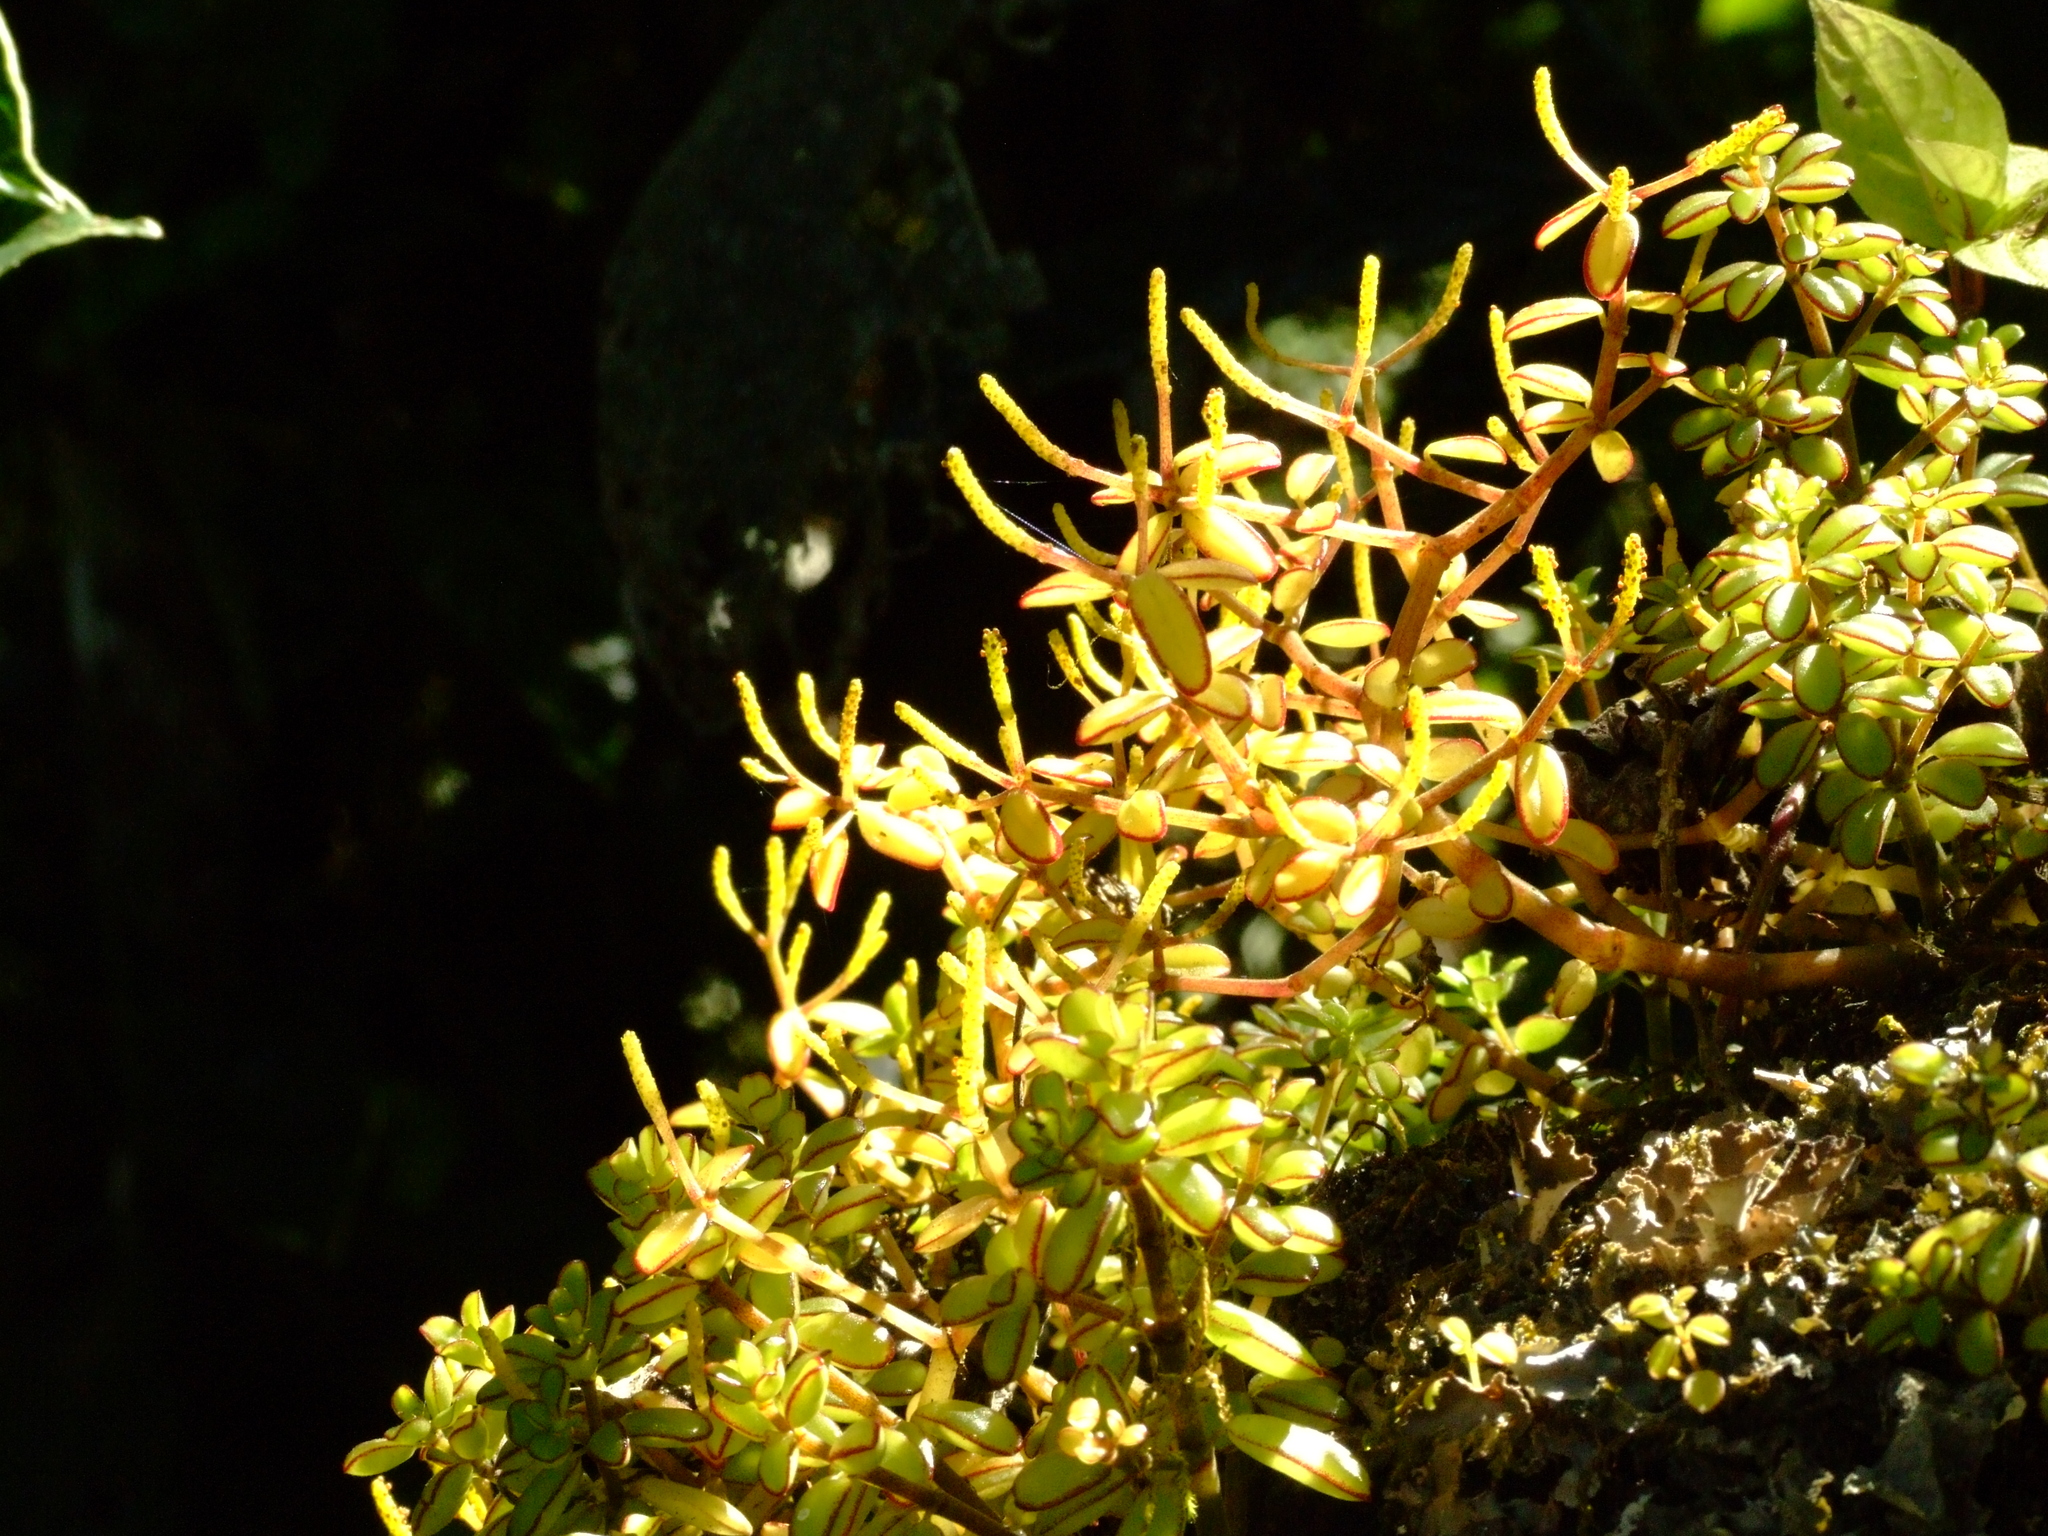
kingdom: Plantae
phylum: Tracheophyta
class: Magnoliopsida
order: Piperales
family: Piperaceae
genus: Peperomia
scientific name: Peperomia inaequalifolia
